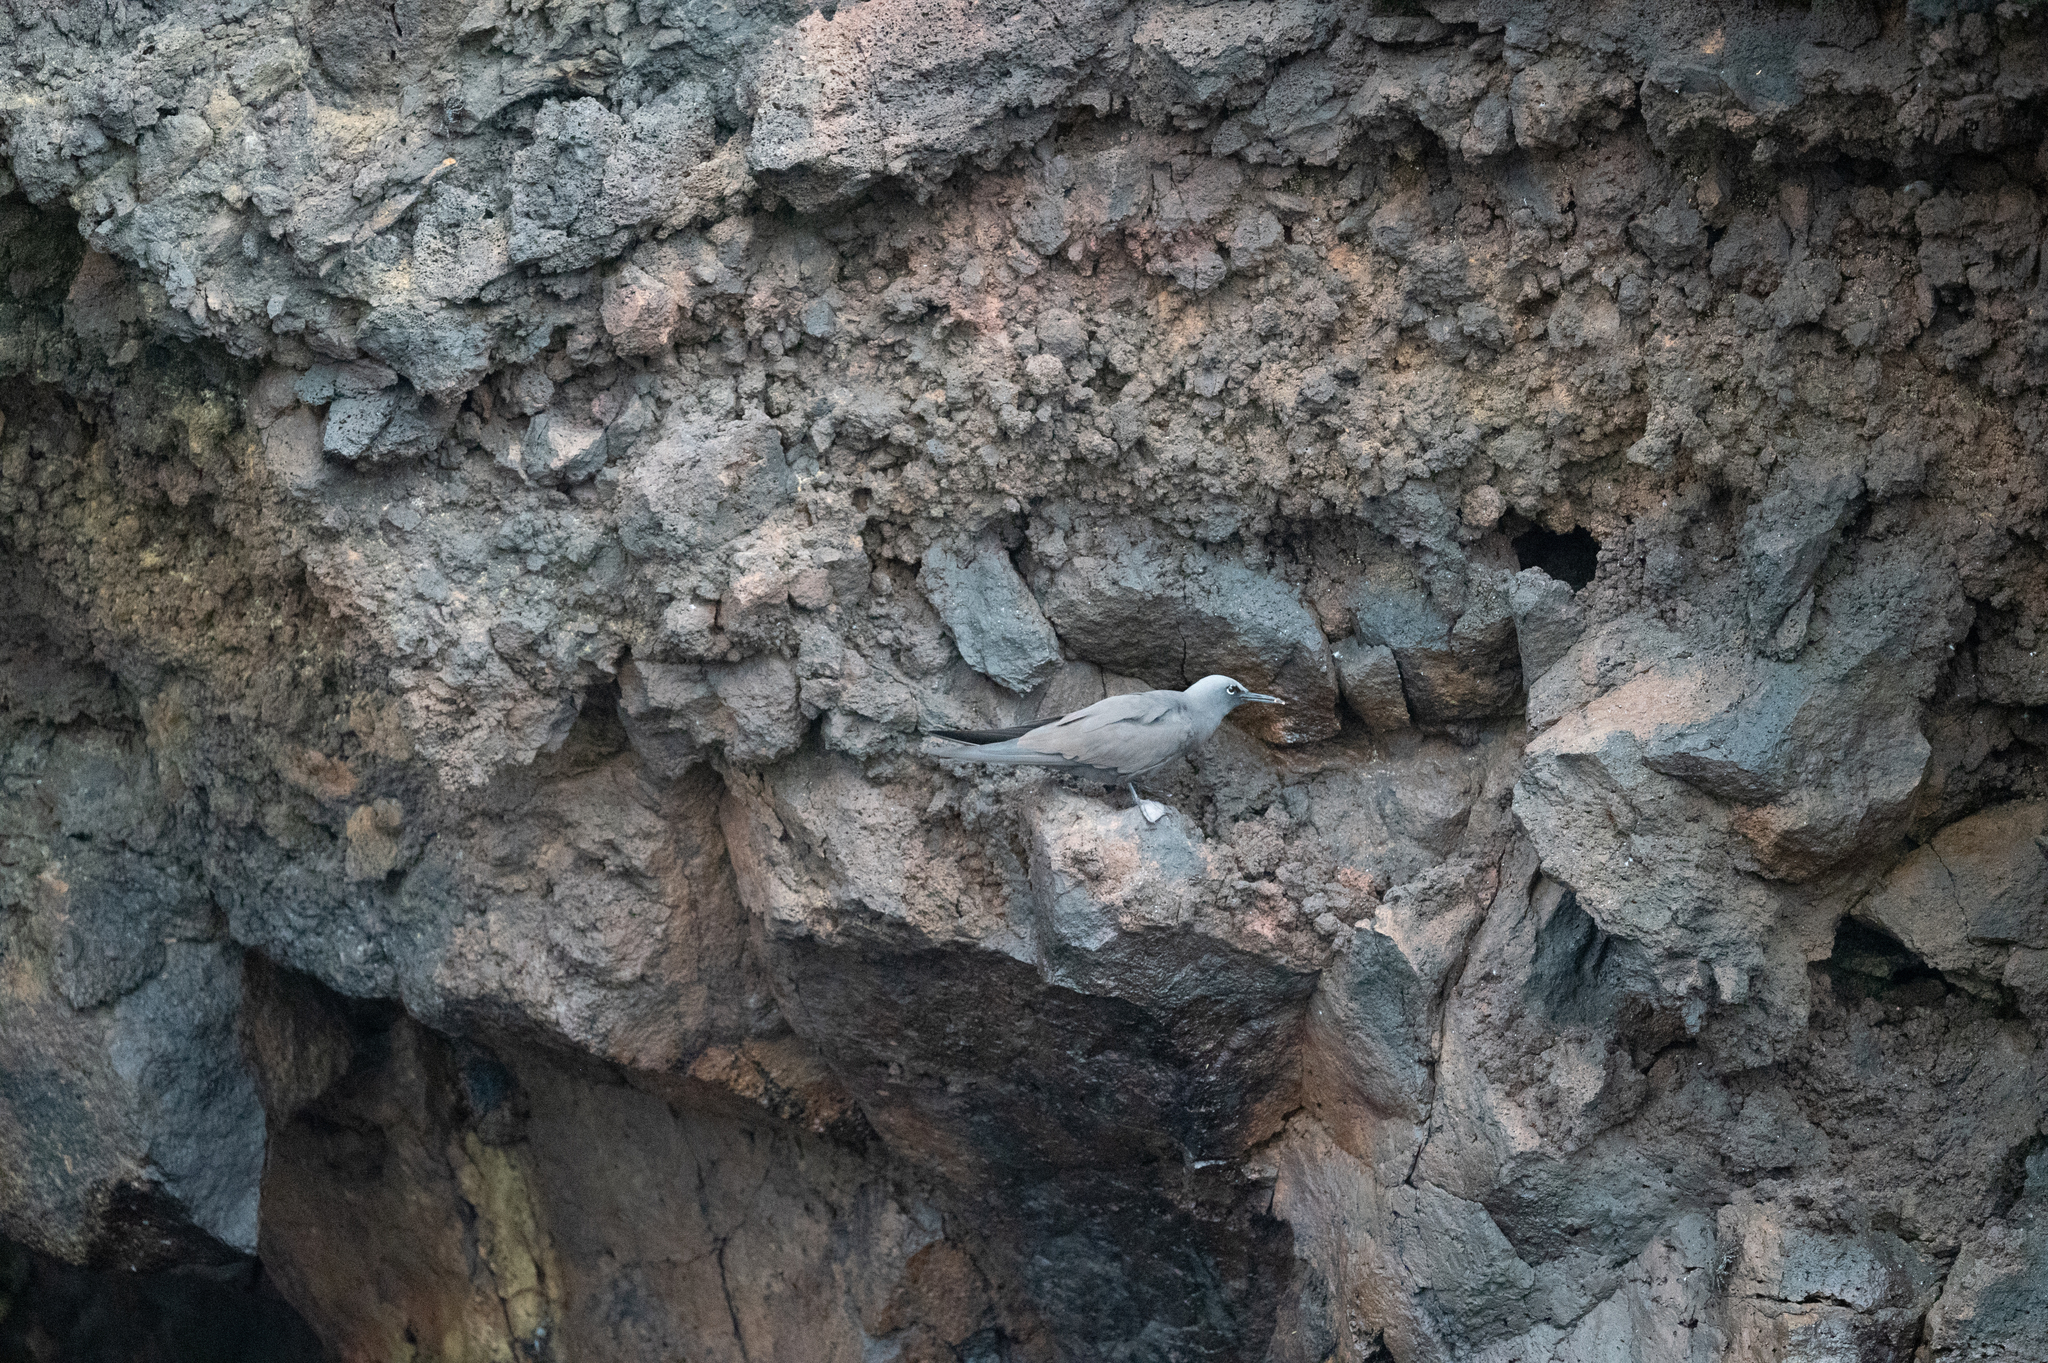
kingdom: Animalia
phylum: Chordata
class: Aves
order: Charadriiformes
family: Laridae
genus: Anous
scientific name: Anous stolidus
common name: Brown noddy
